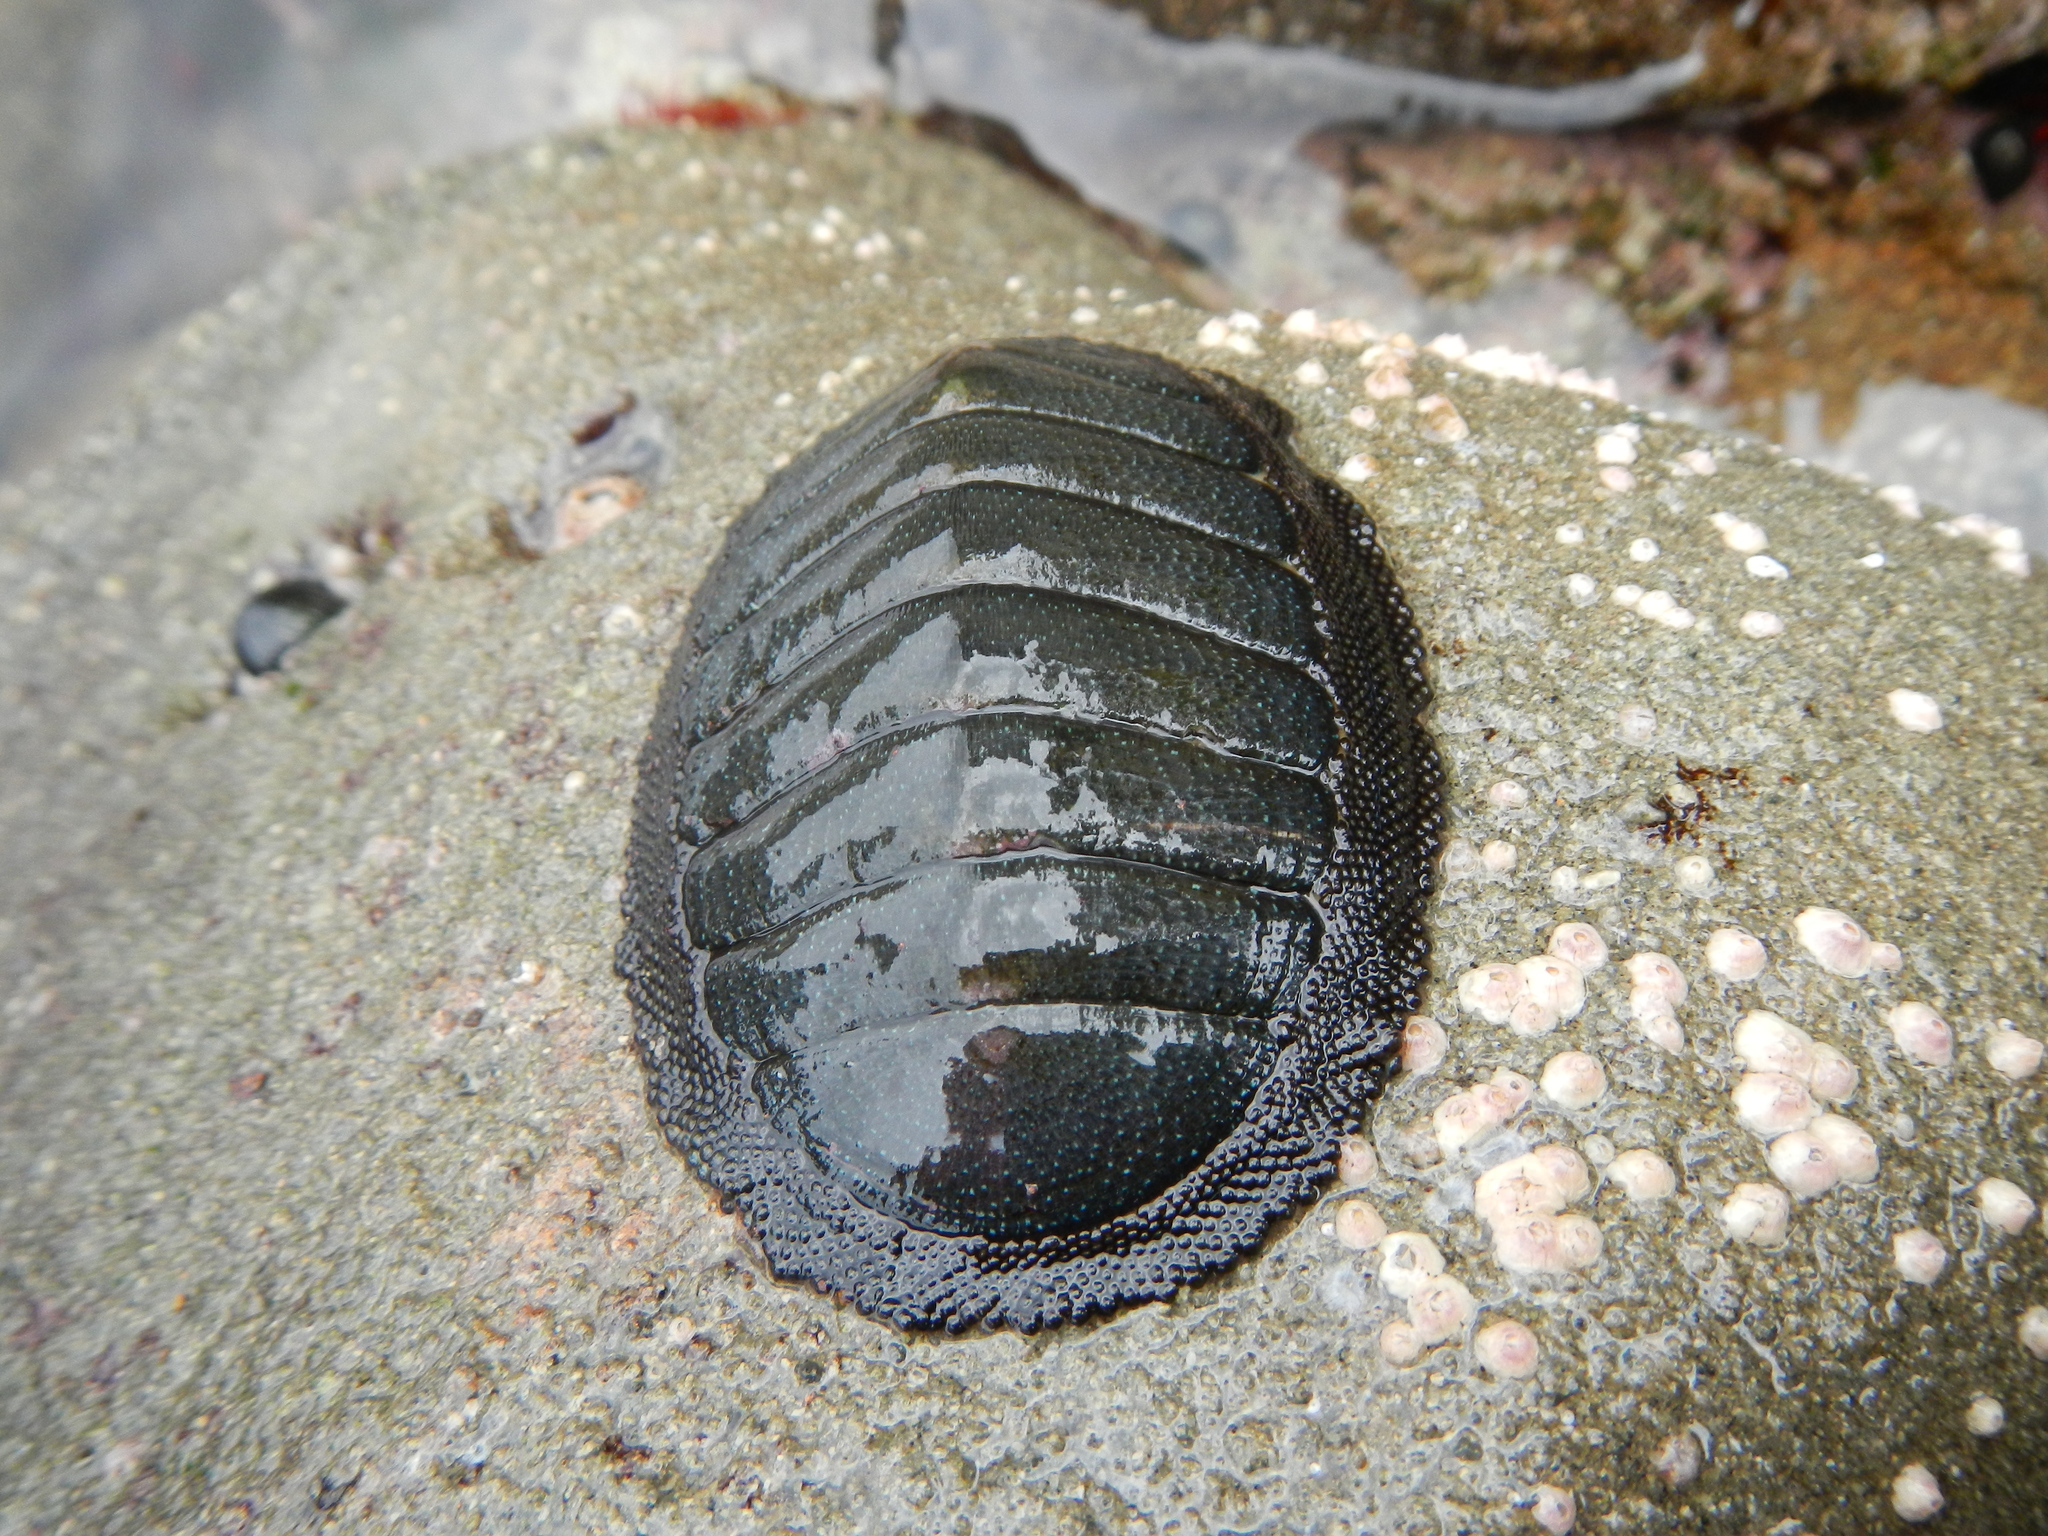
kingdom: Animalia
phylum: Mollusca
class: Polyplacophora
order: Chitonida
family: Chitonidae
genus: Chiton
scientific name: Chiton magnificus
